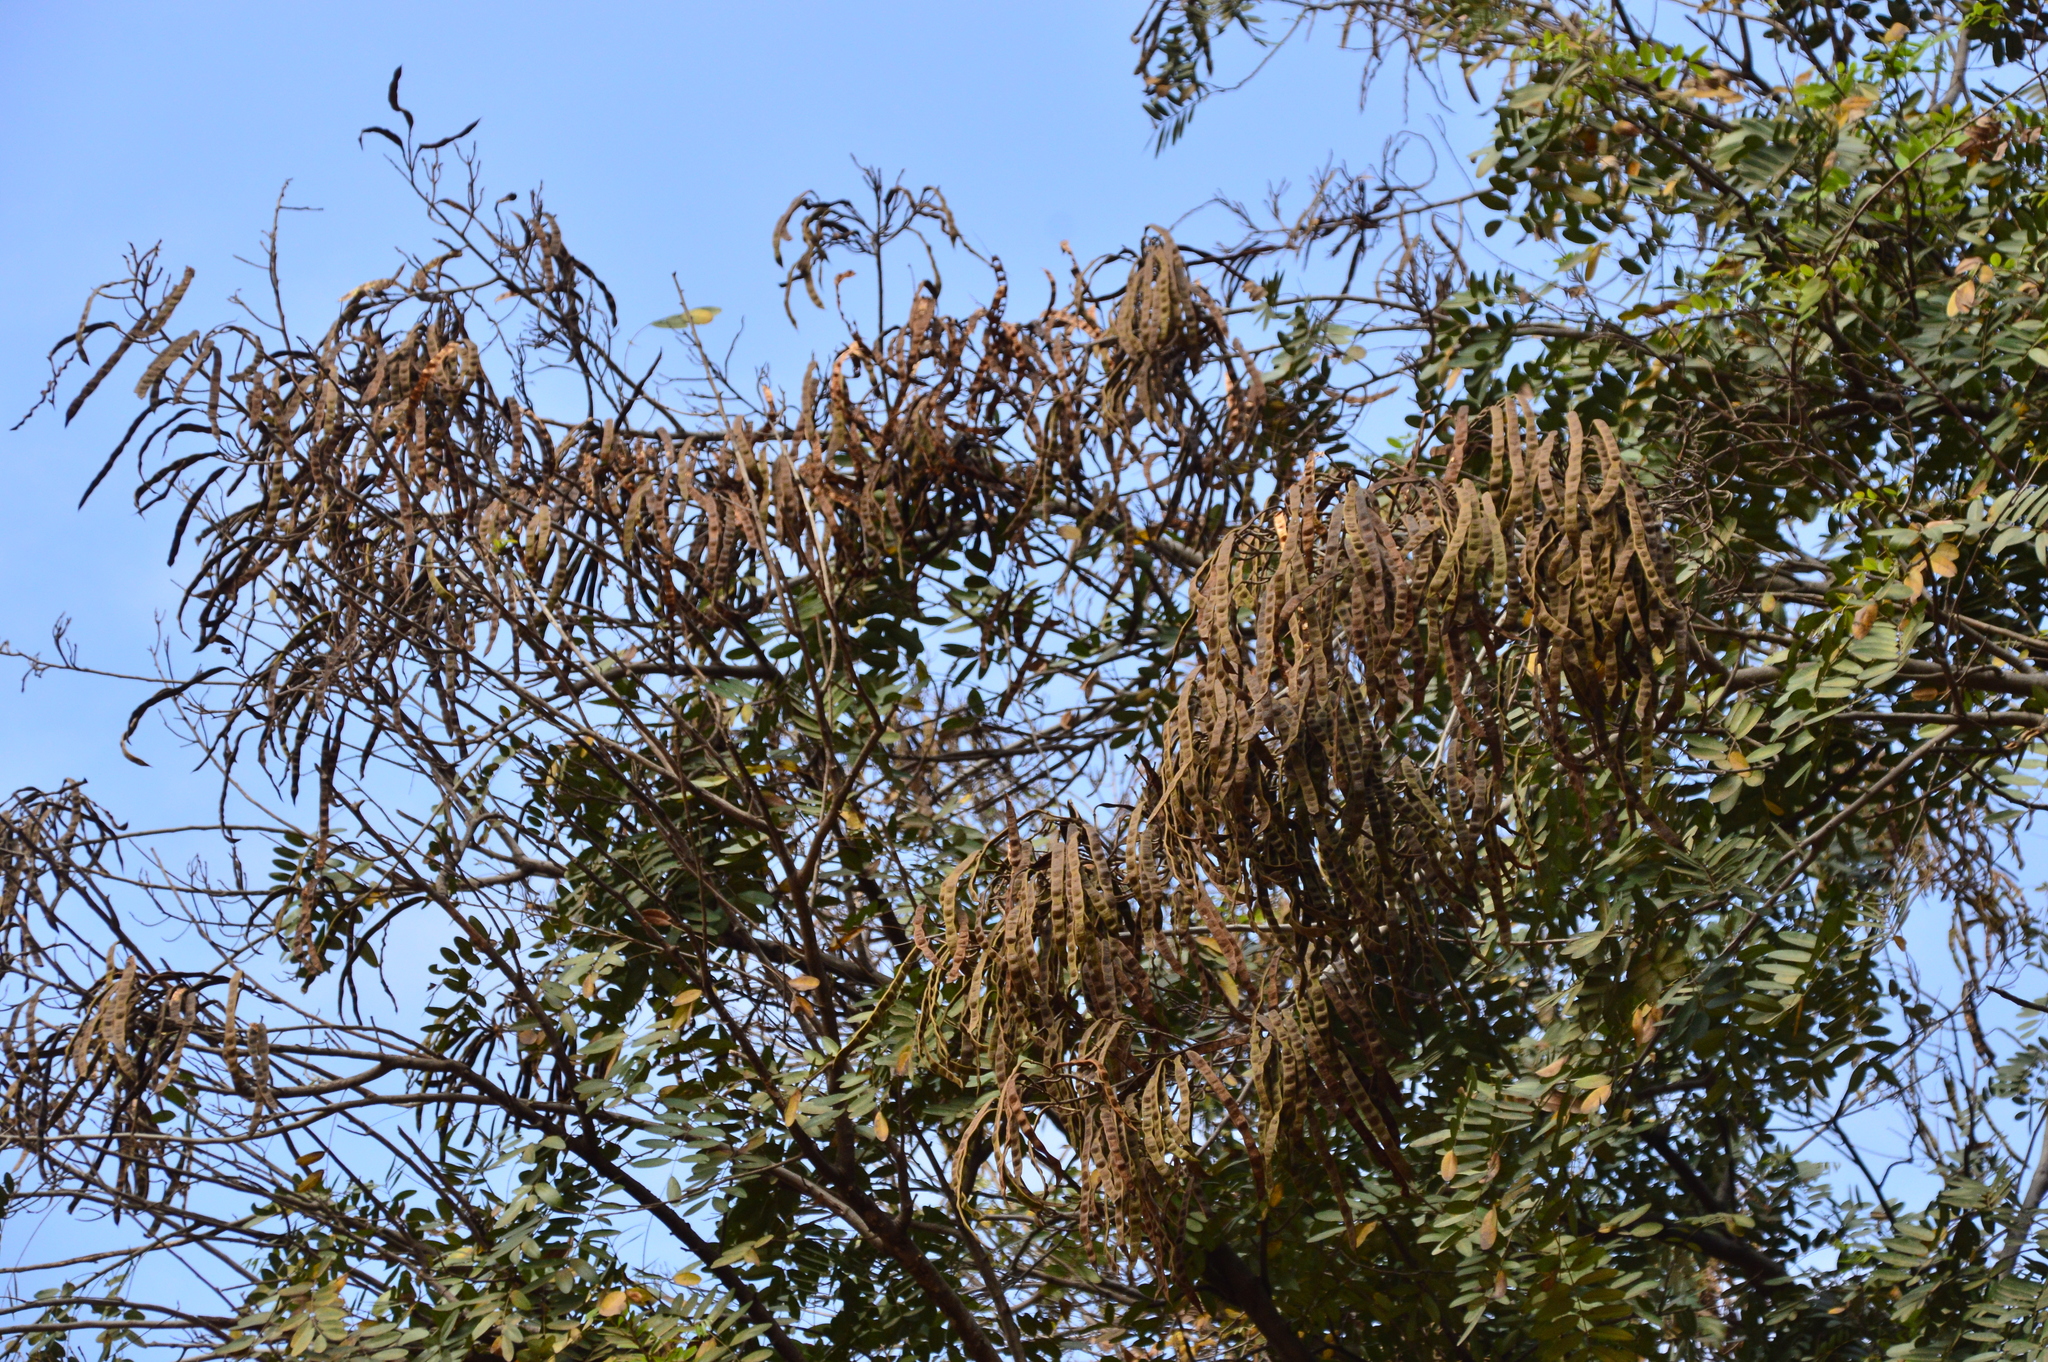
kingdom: Plantae
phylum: Tracheophyta
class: Magnoliopsida
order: Fabales
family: Fabaceae
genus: Senna
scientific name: Senna siamea
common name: Siamese cassia
